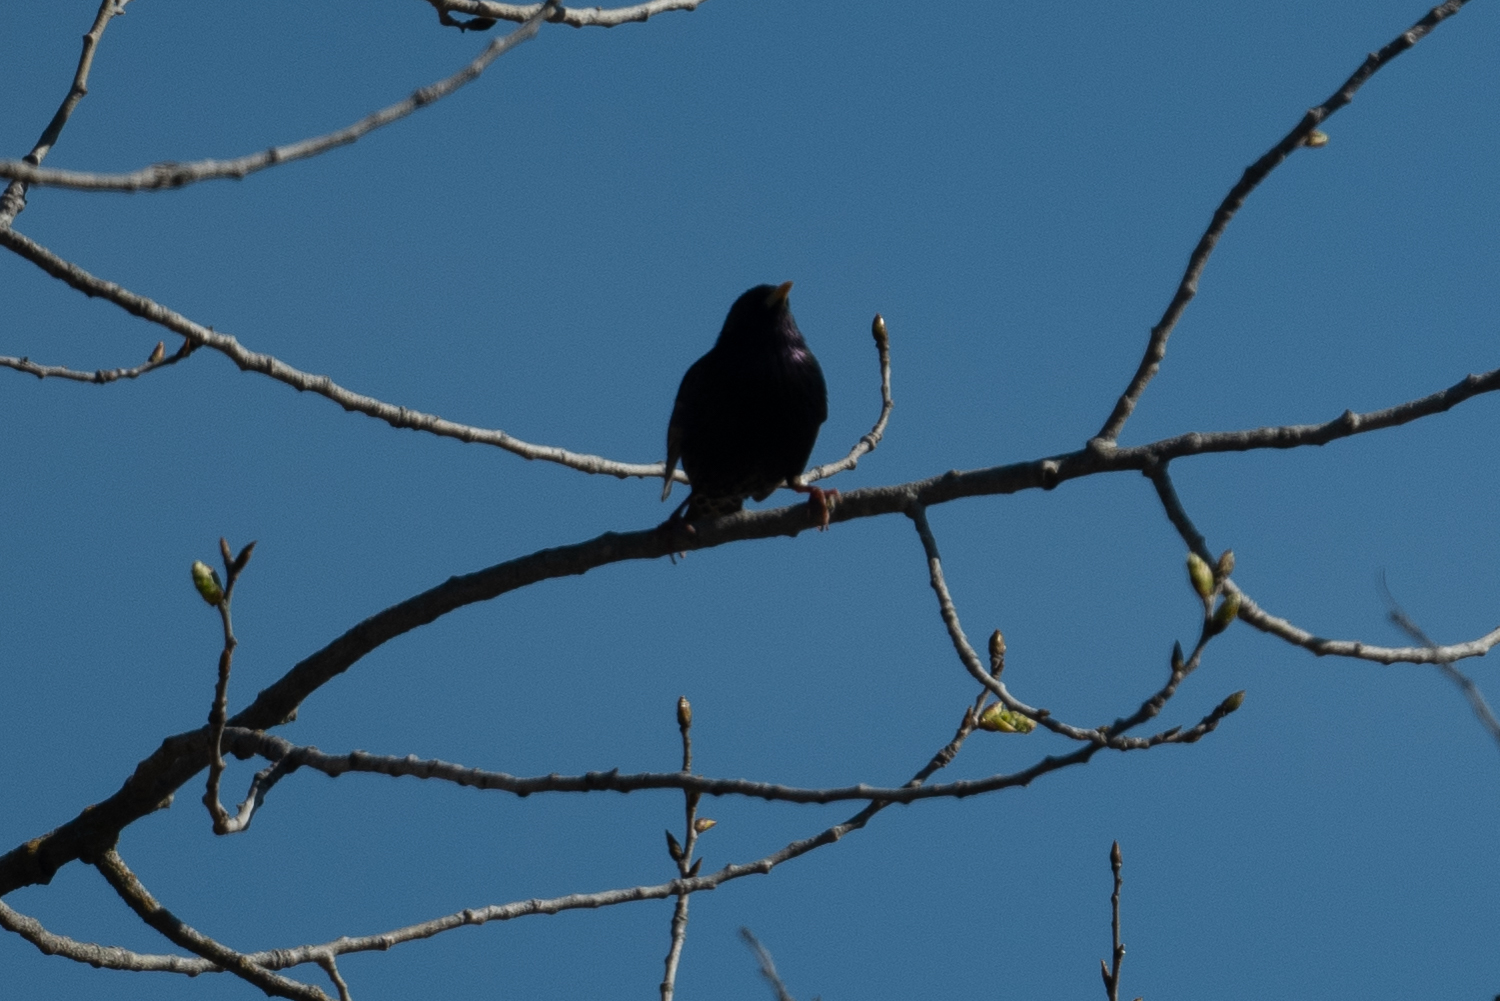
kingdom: Animalia
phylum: Chordata
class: Aves
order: Passeriformes
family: Sturnidae
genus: Sturnus
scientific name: Sturnus vulgaris
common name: Common starling
